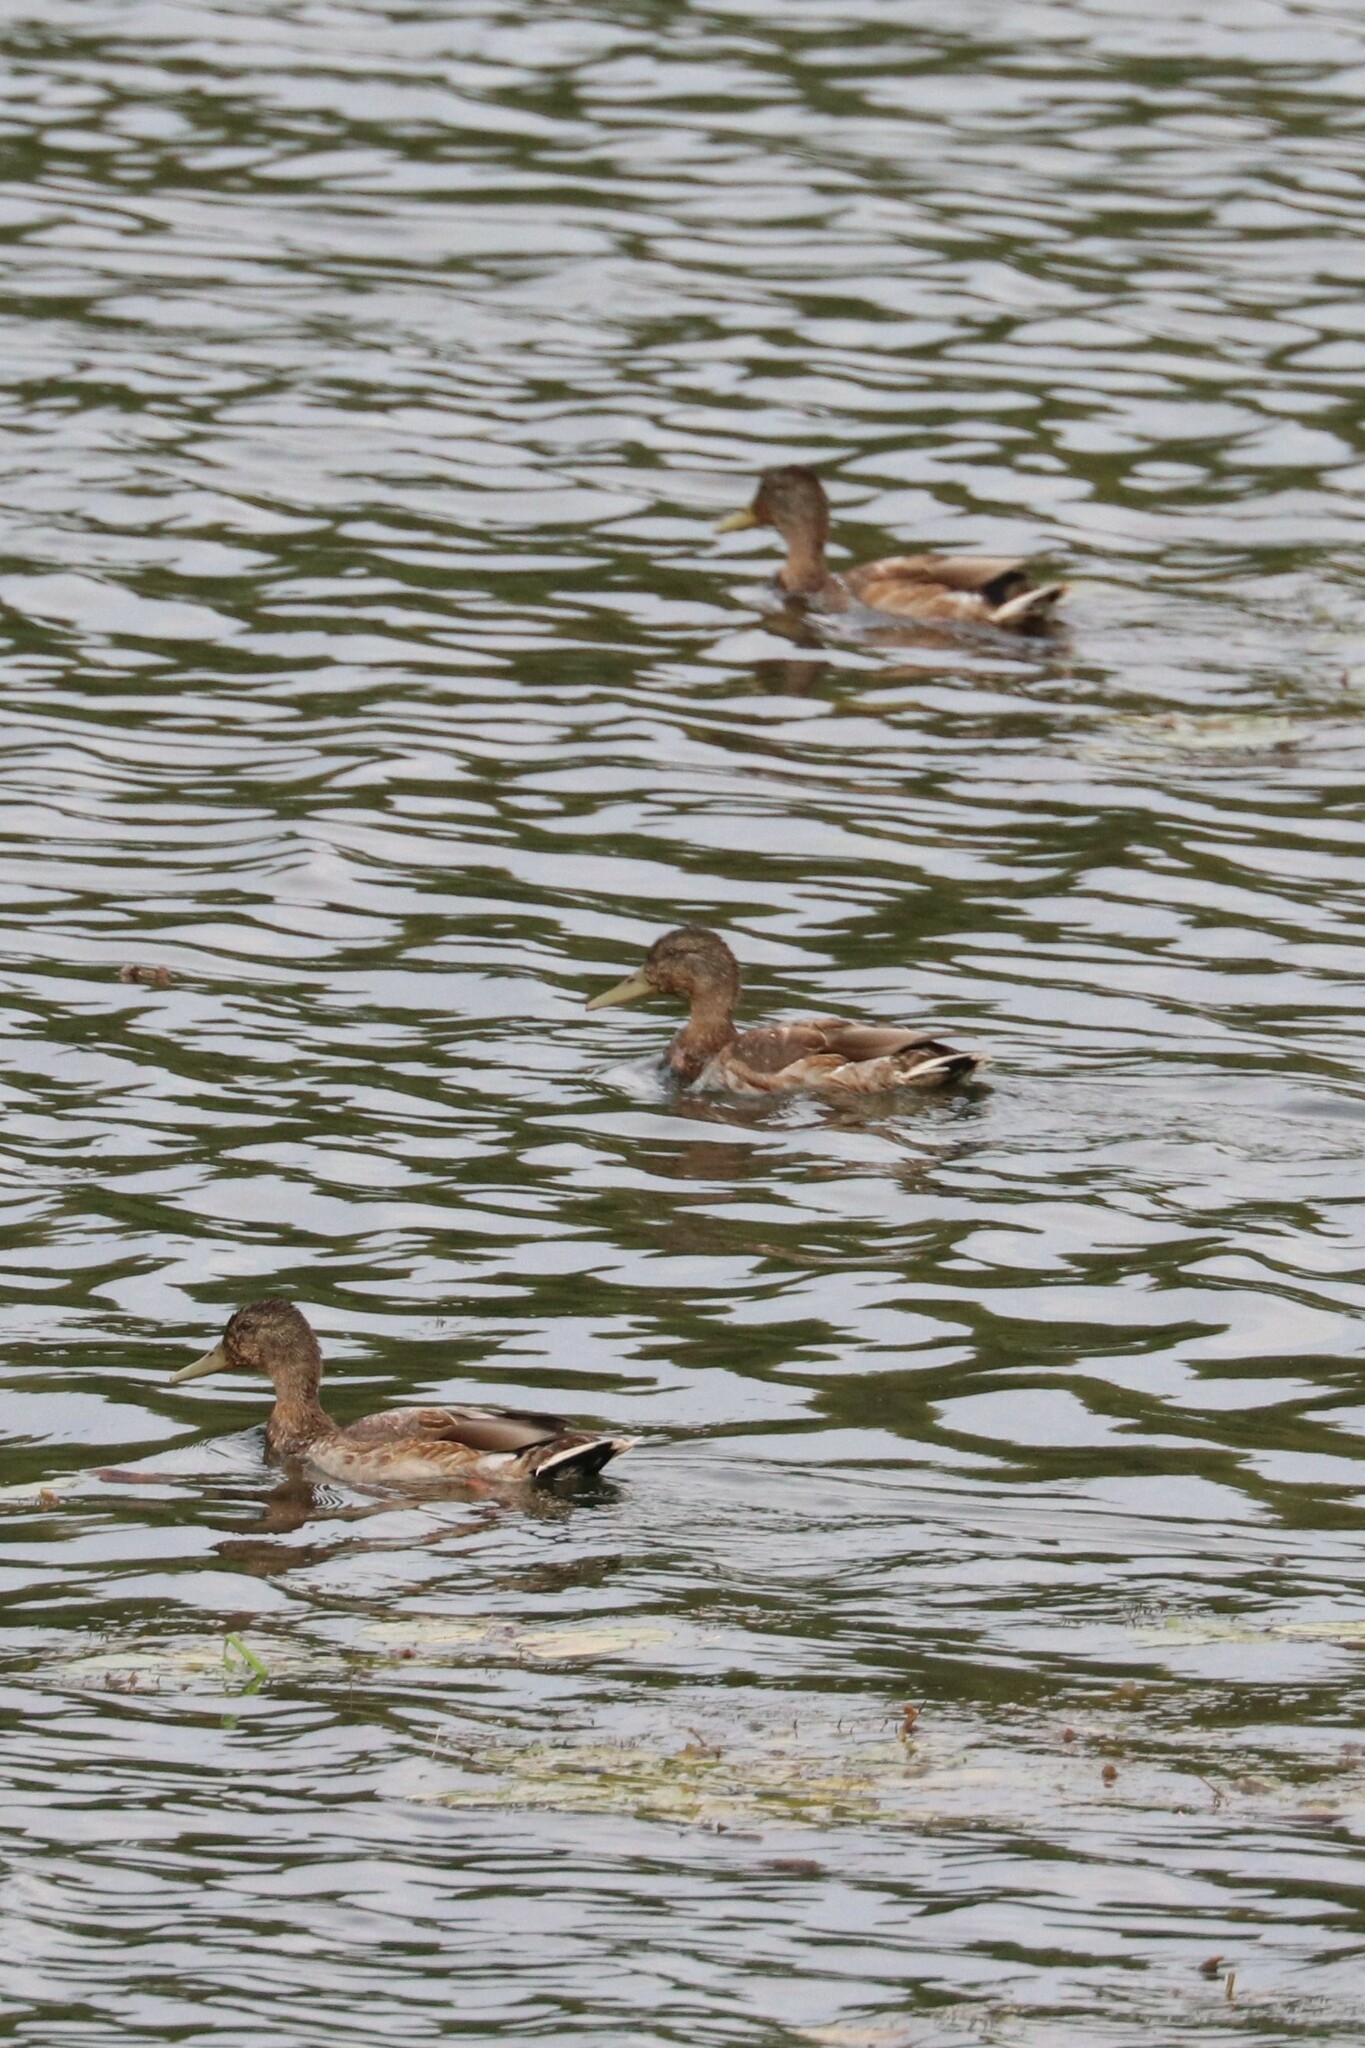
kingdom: Animalia
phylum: Chordata
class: Aves
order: Anseriformes
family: Anatidae
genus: Anas
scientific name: Anas platyrhynchos
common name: Mallard
